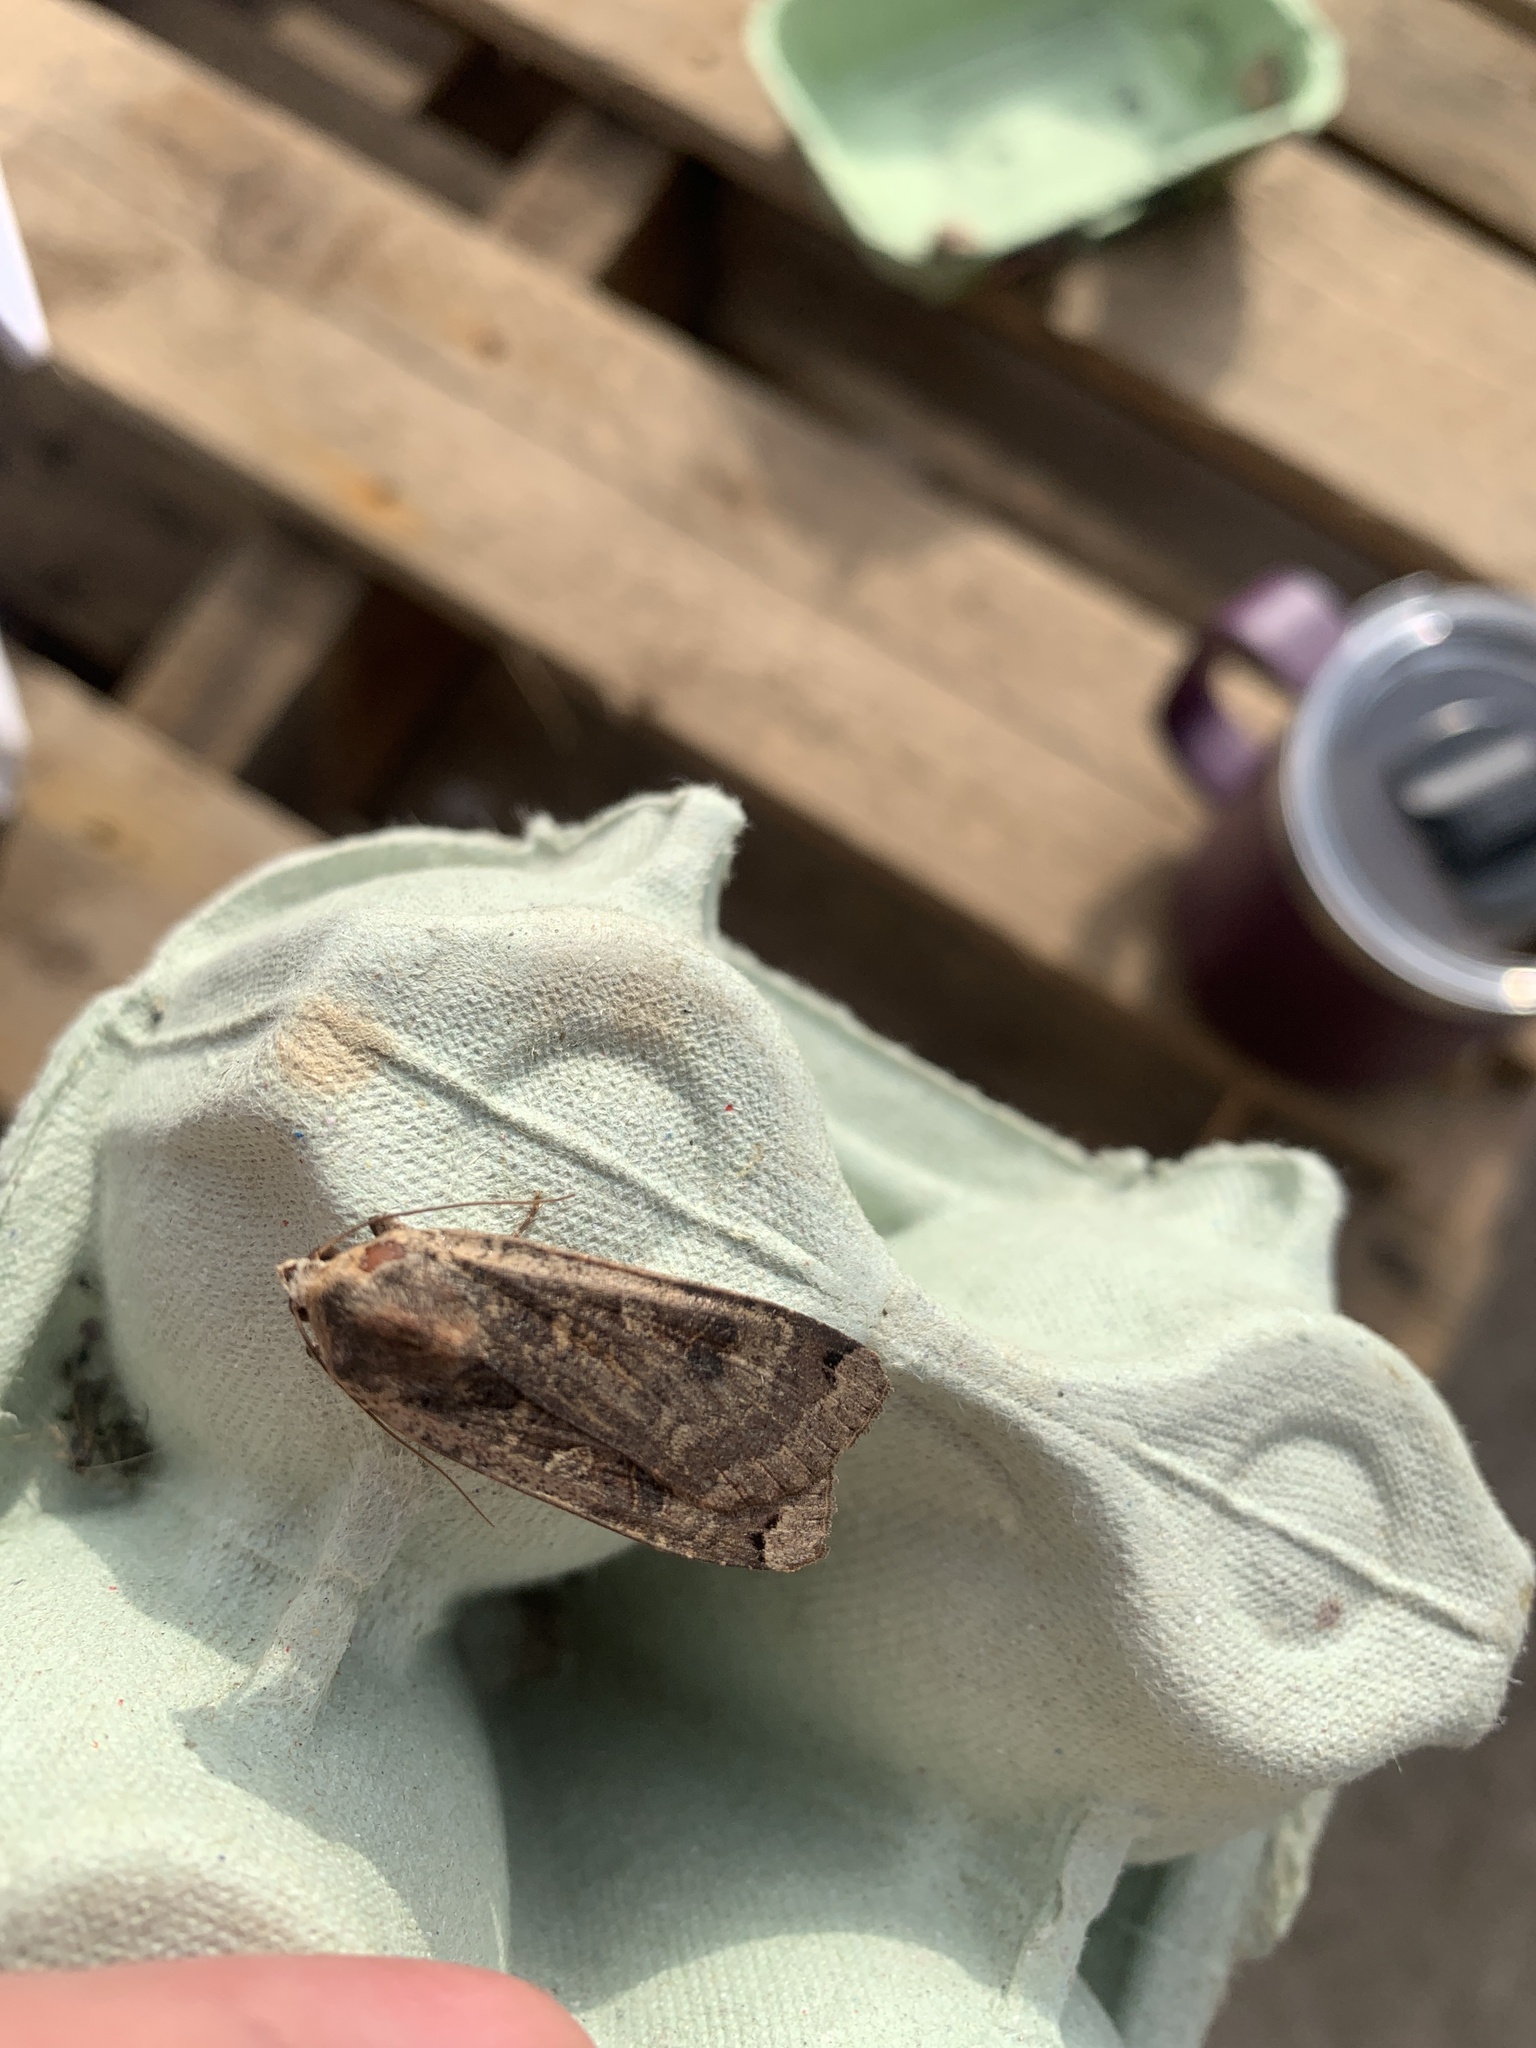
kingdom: Animalia
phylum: Arthropoda
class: Insecta
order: Lepidoptera
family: Noctuidae
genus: Noctua
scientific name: Noctua pronuba
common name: Large yellow underwing
